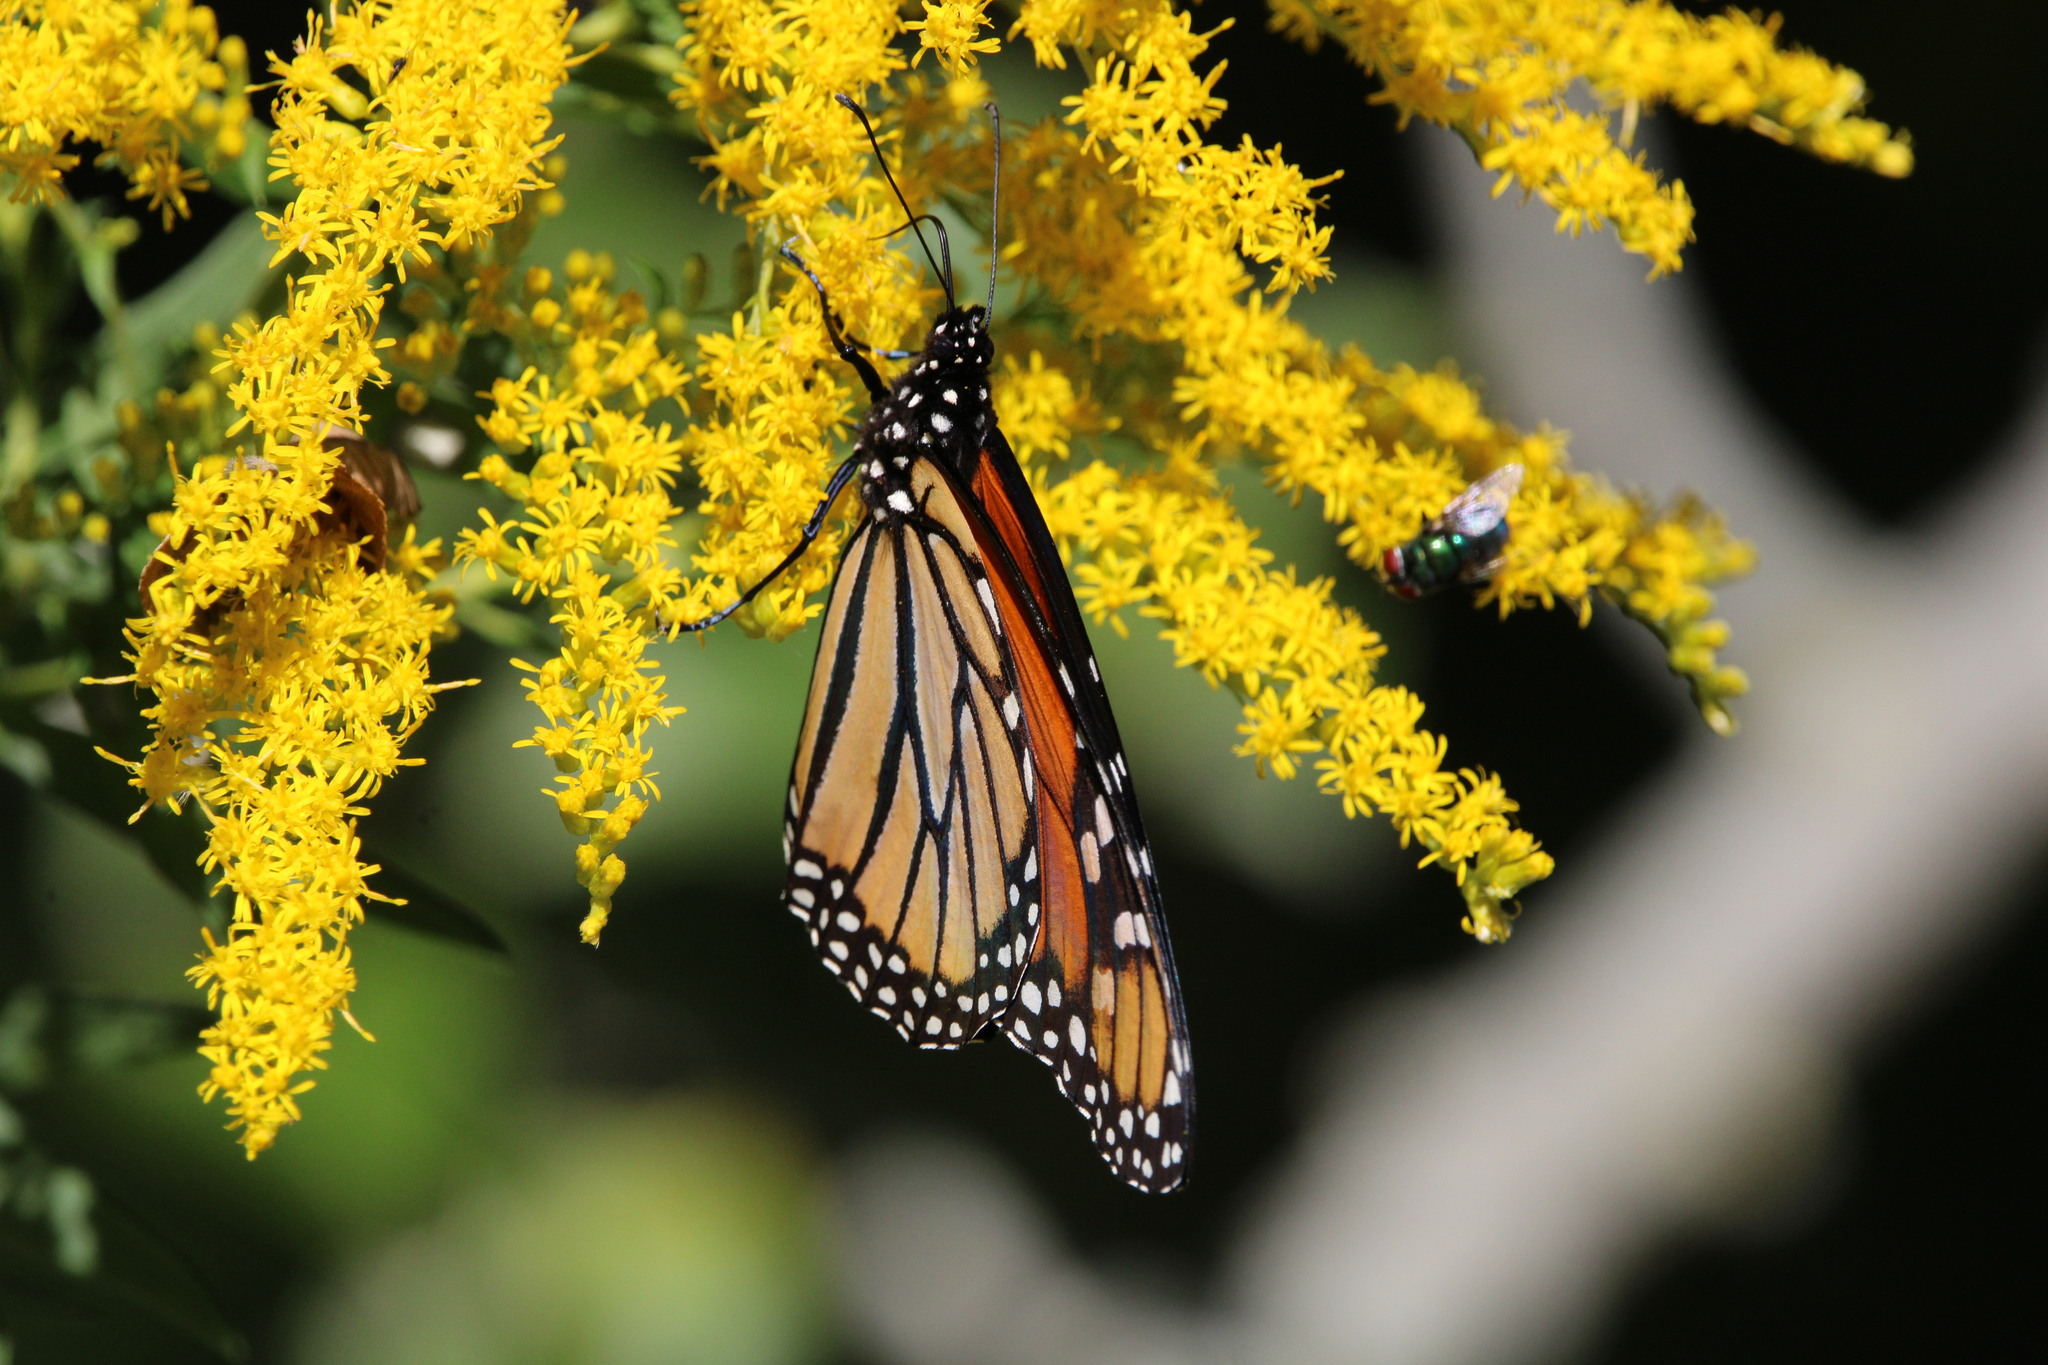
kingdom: Animalia
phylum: Arthropoda
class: Insecta
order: Lepidoptera
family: Nymphalidae
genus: Danaus
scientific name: Danaus plexippus
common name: Monarch
